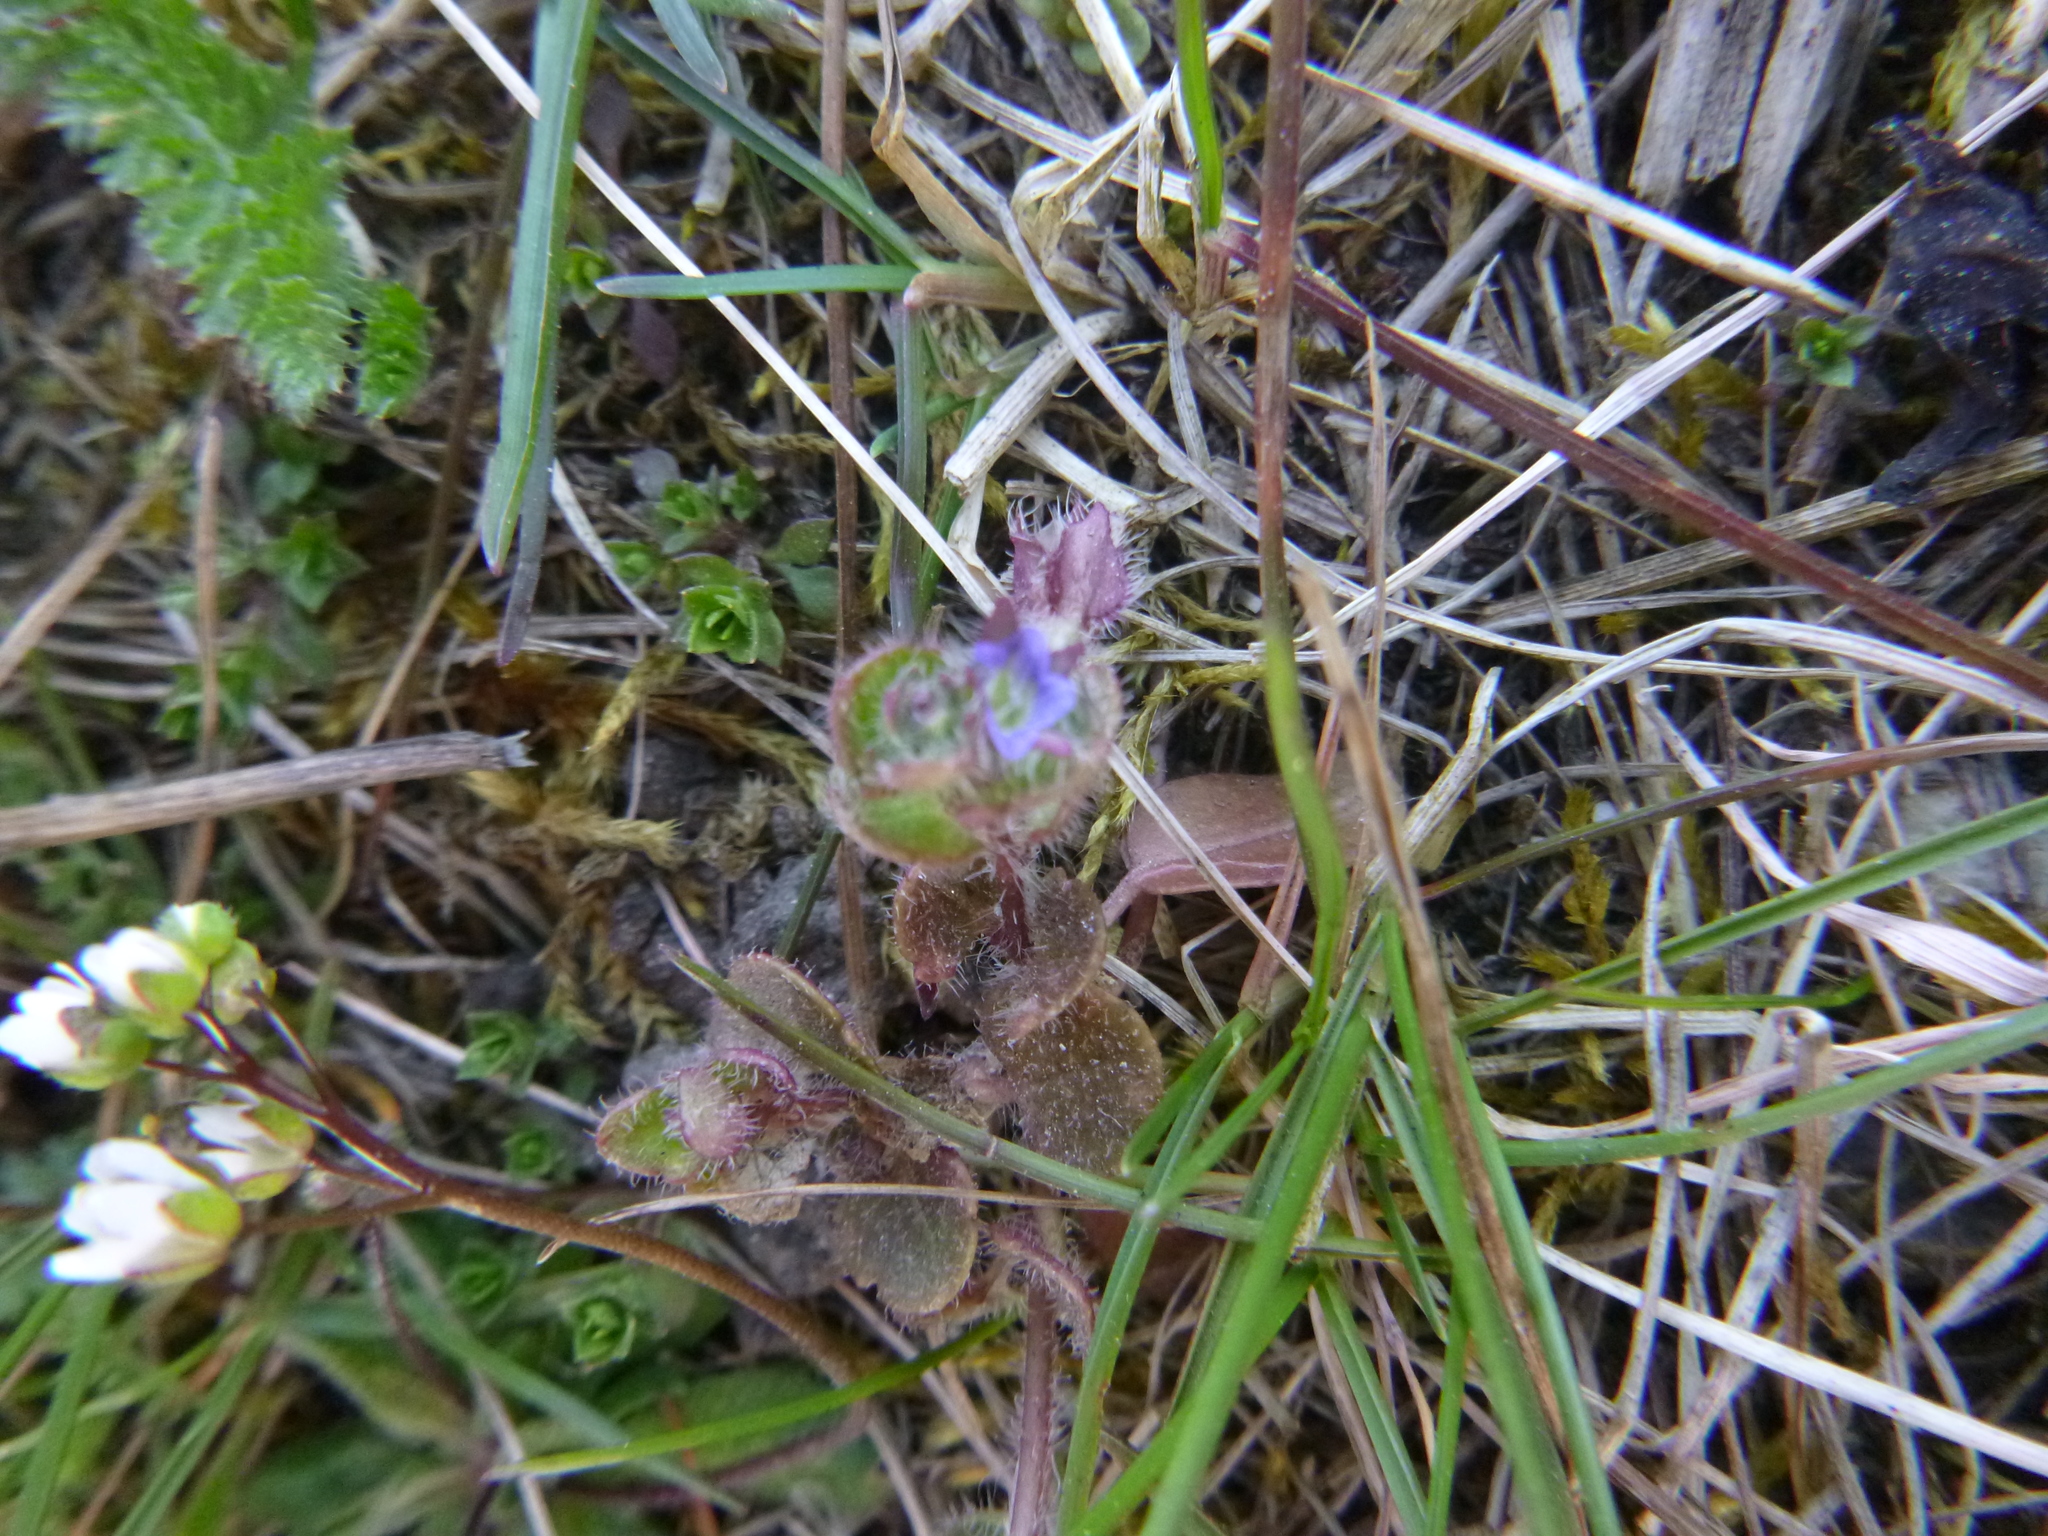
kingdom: Plantae
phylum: Tracheophyta
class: Magnoliopsida
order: Lamiales
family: Plantaginaceae
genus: Veronica
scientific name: Veronica hederifolia
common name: Ivy-leaved speedwell
